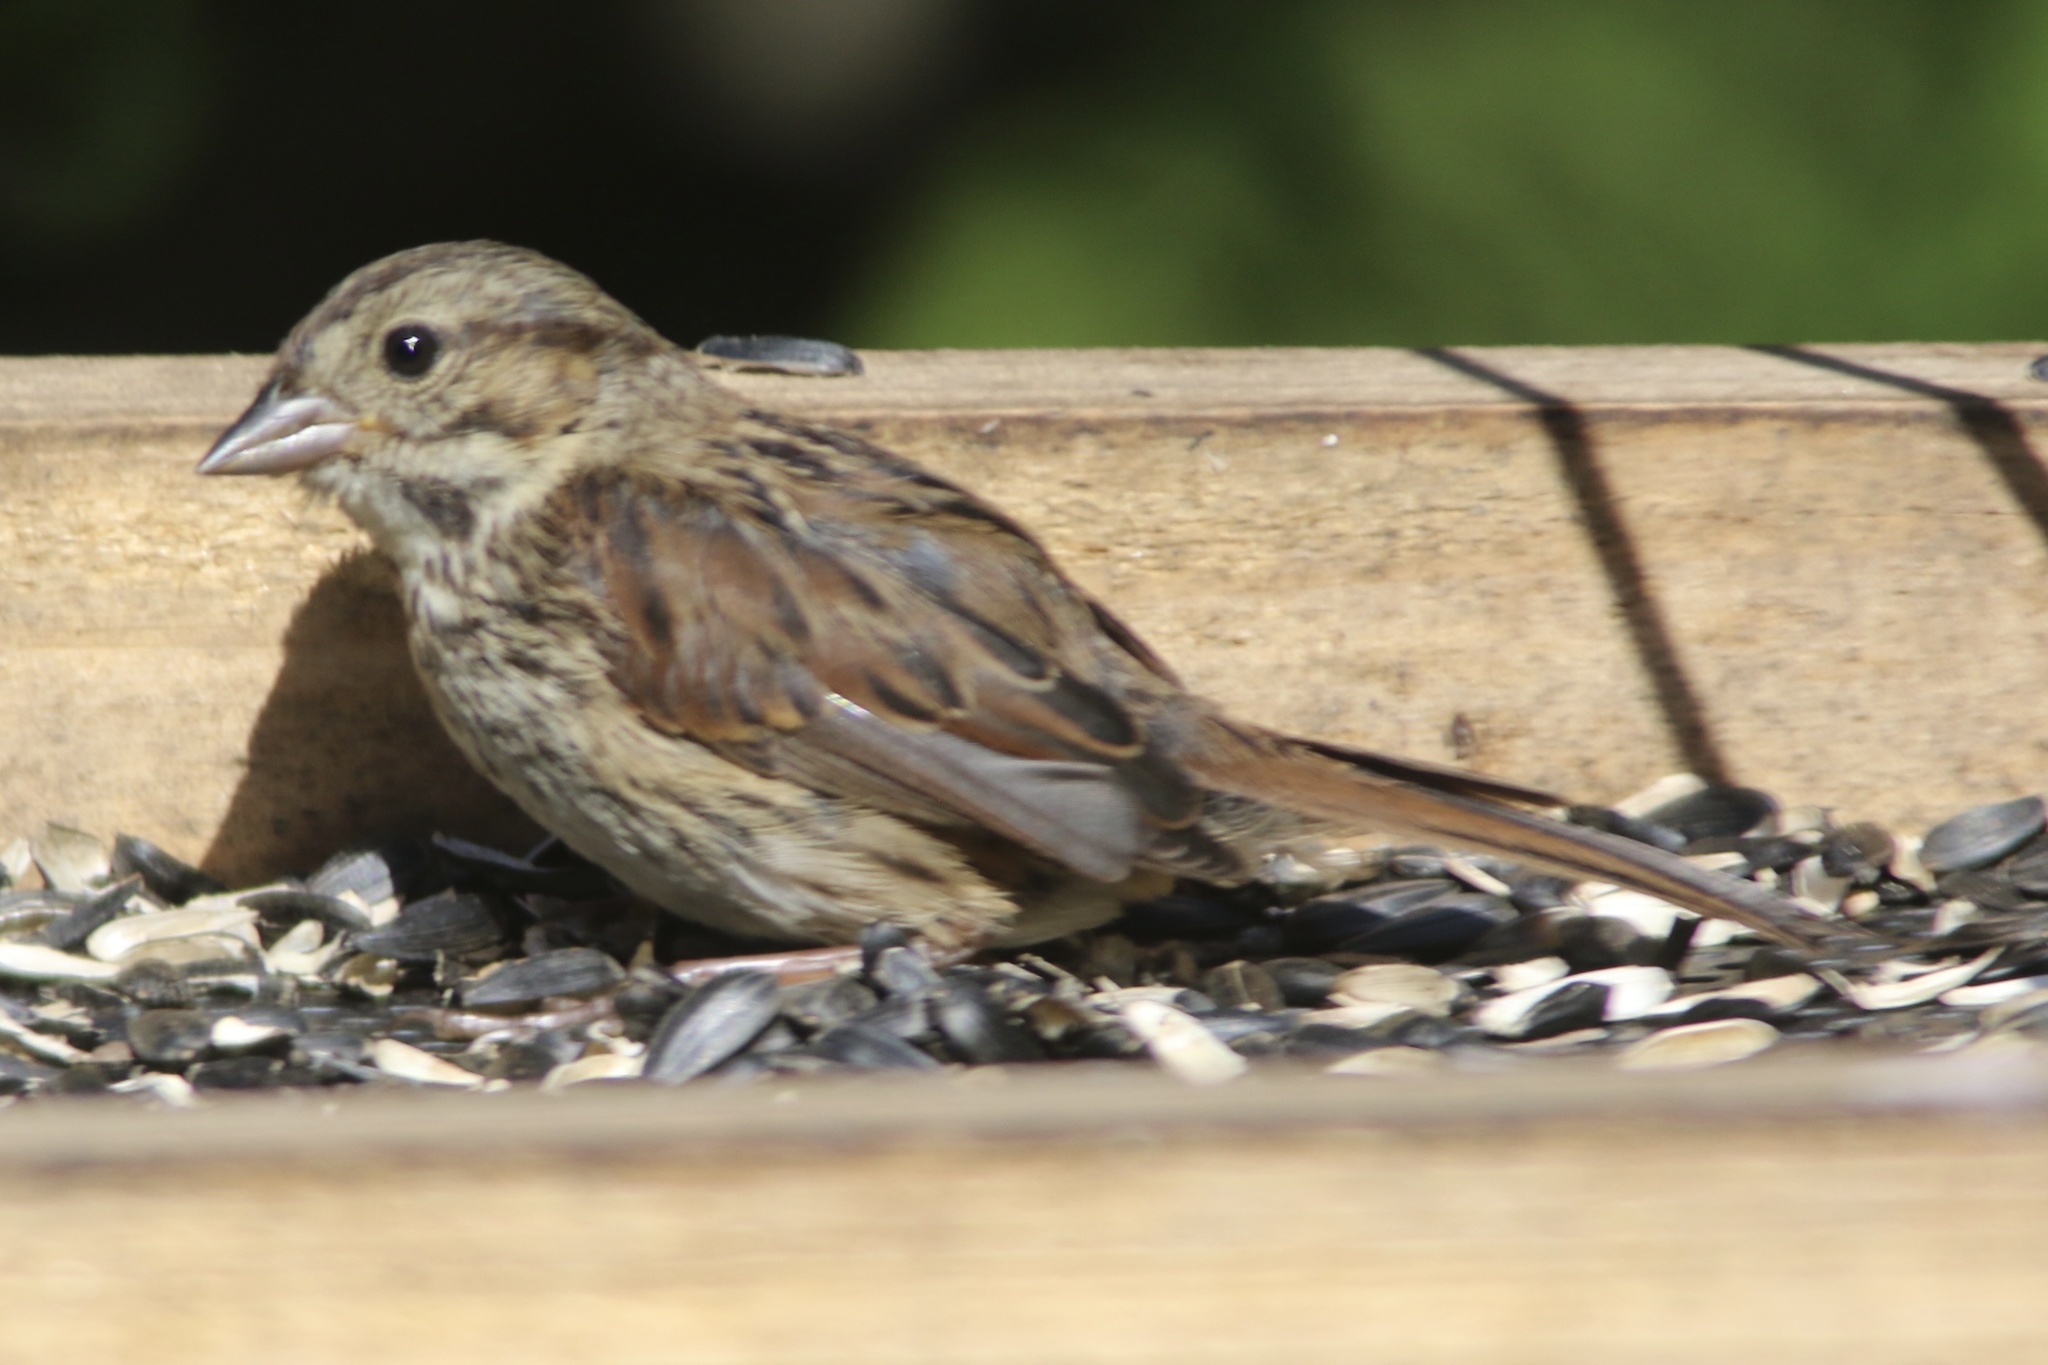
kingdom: Animalia
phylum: Chordata
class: Aves
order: Passeriformes
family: Passerellidae
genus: Melospiza
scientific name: Melospiza melodia
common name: Song sparrow
